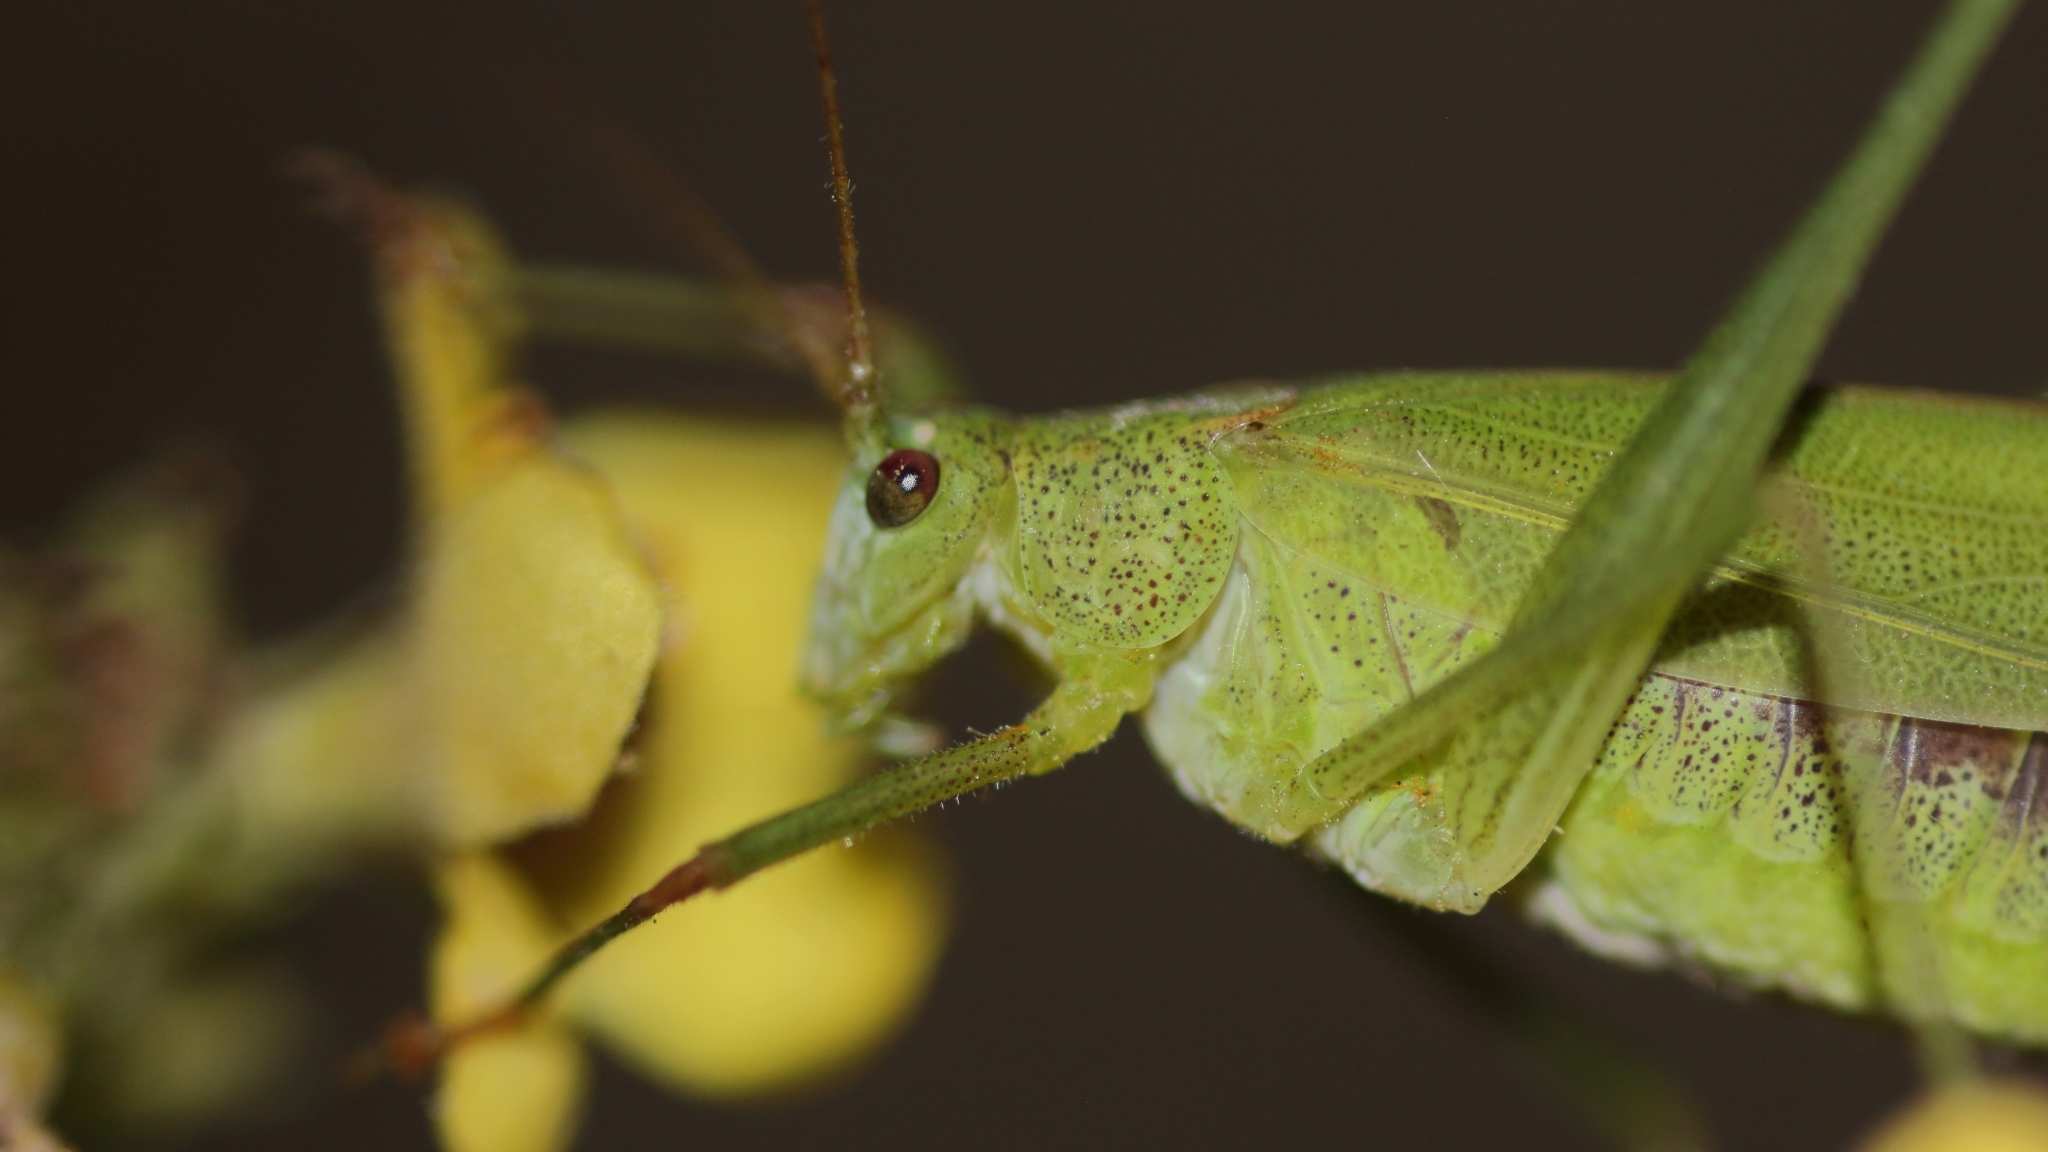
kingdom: Animalia
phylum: Arthropoda
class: Insecta
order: Orthoptera
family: Tettigoniidae
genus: Phaneroptera
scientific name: Phaneroptera falcata
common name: Sickle-bearing bush-cricket
